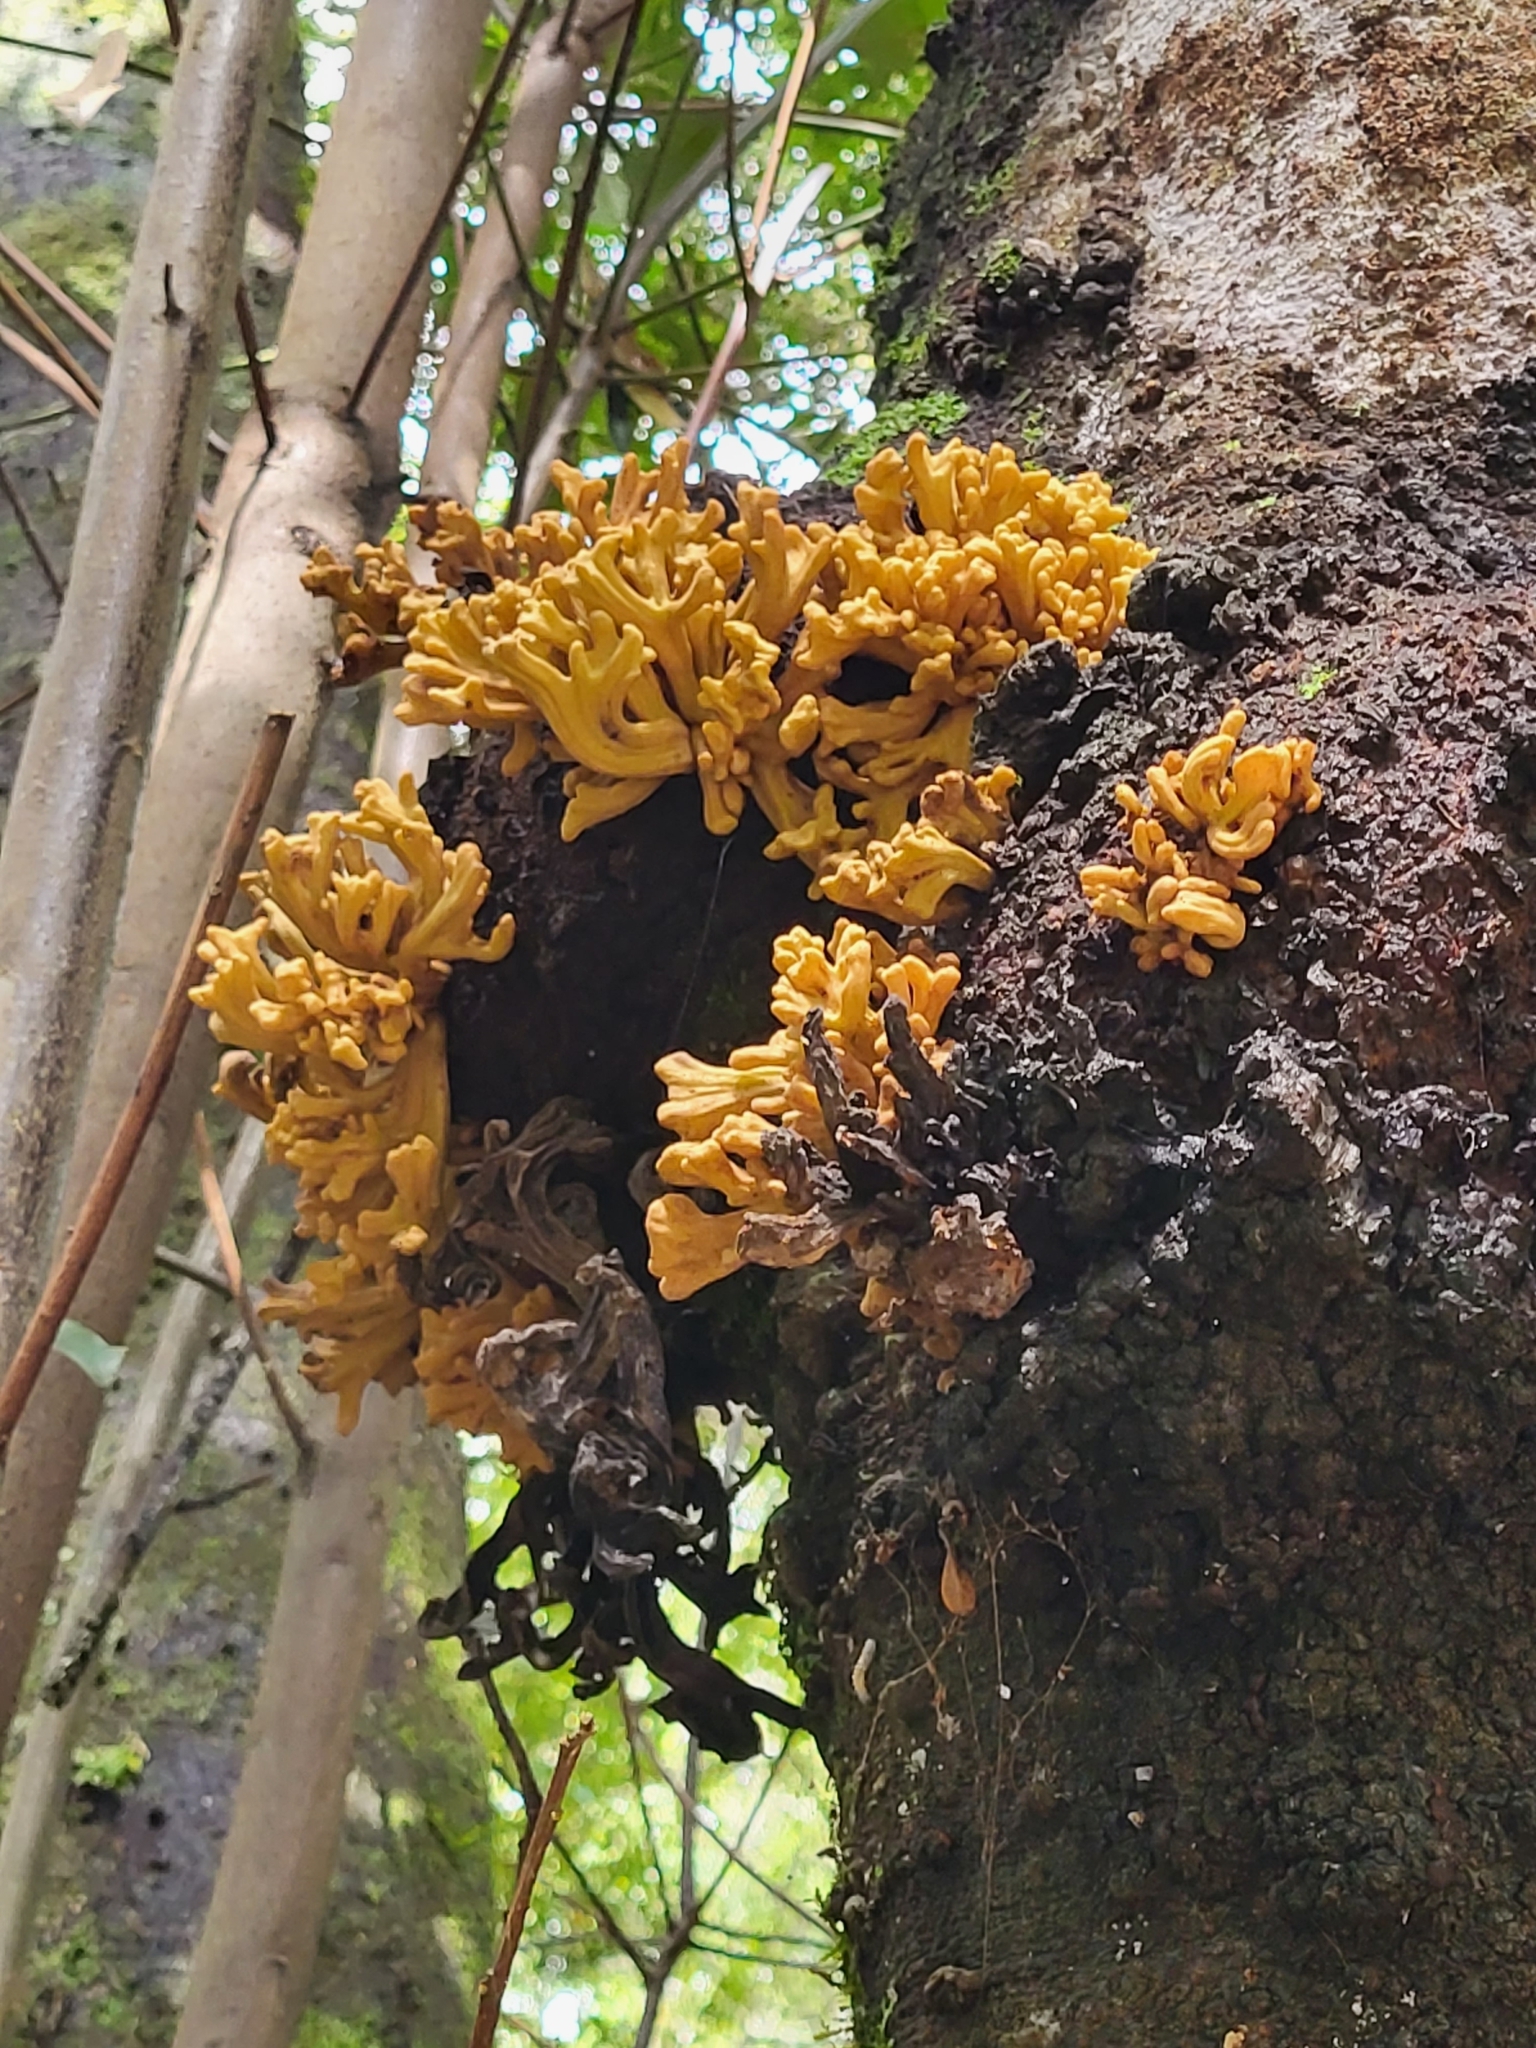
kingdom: Fungi
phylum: Basidiomycota
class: Exobasidiomycetes
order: Exobasidiales
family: Laurobasidiaceae
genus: Laurobasidium
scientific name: Laurobasidium lauri
